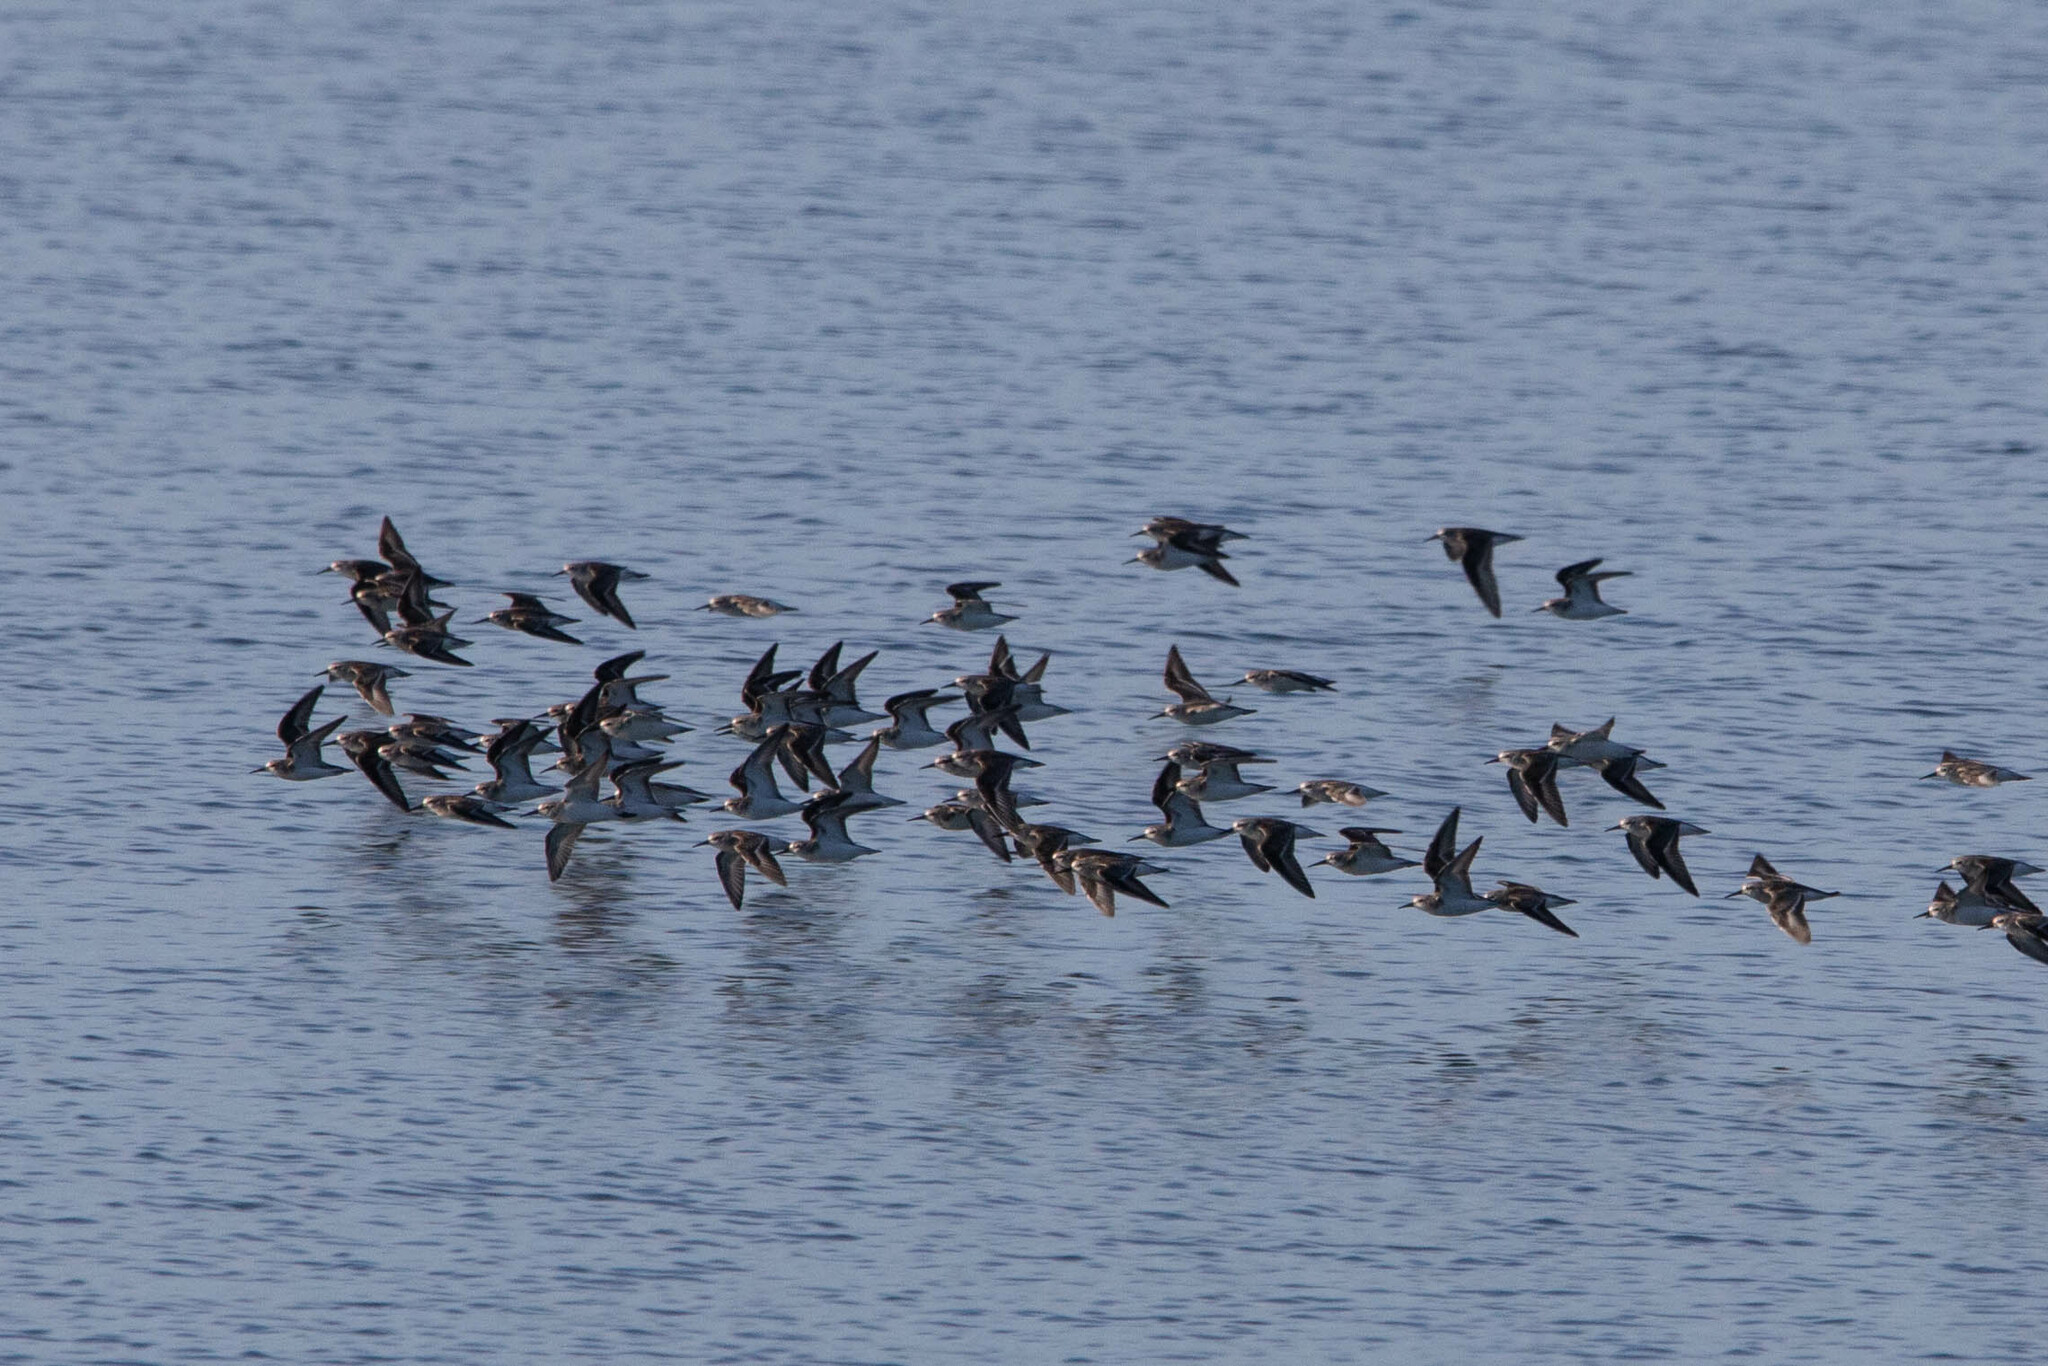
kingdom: Animalia
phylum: Chordata
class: Aves
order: Charadriiformes
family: Scolopacidae
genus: Calidris
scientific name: Calidris mauri
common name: Western sandpiper
